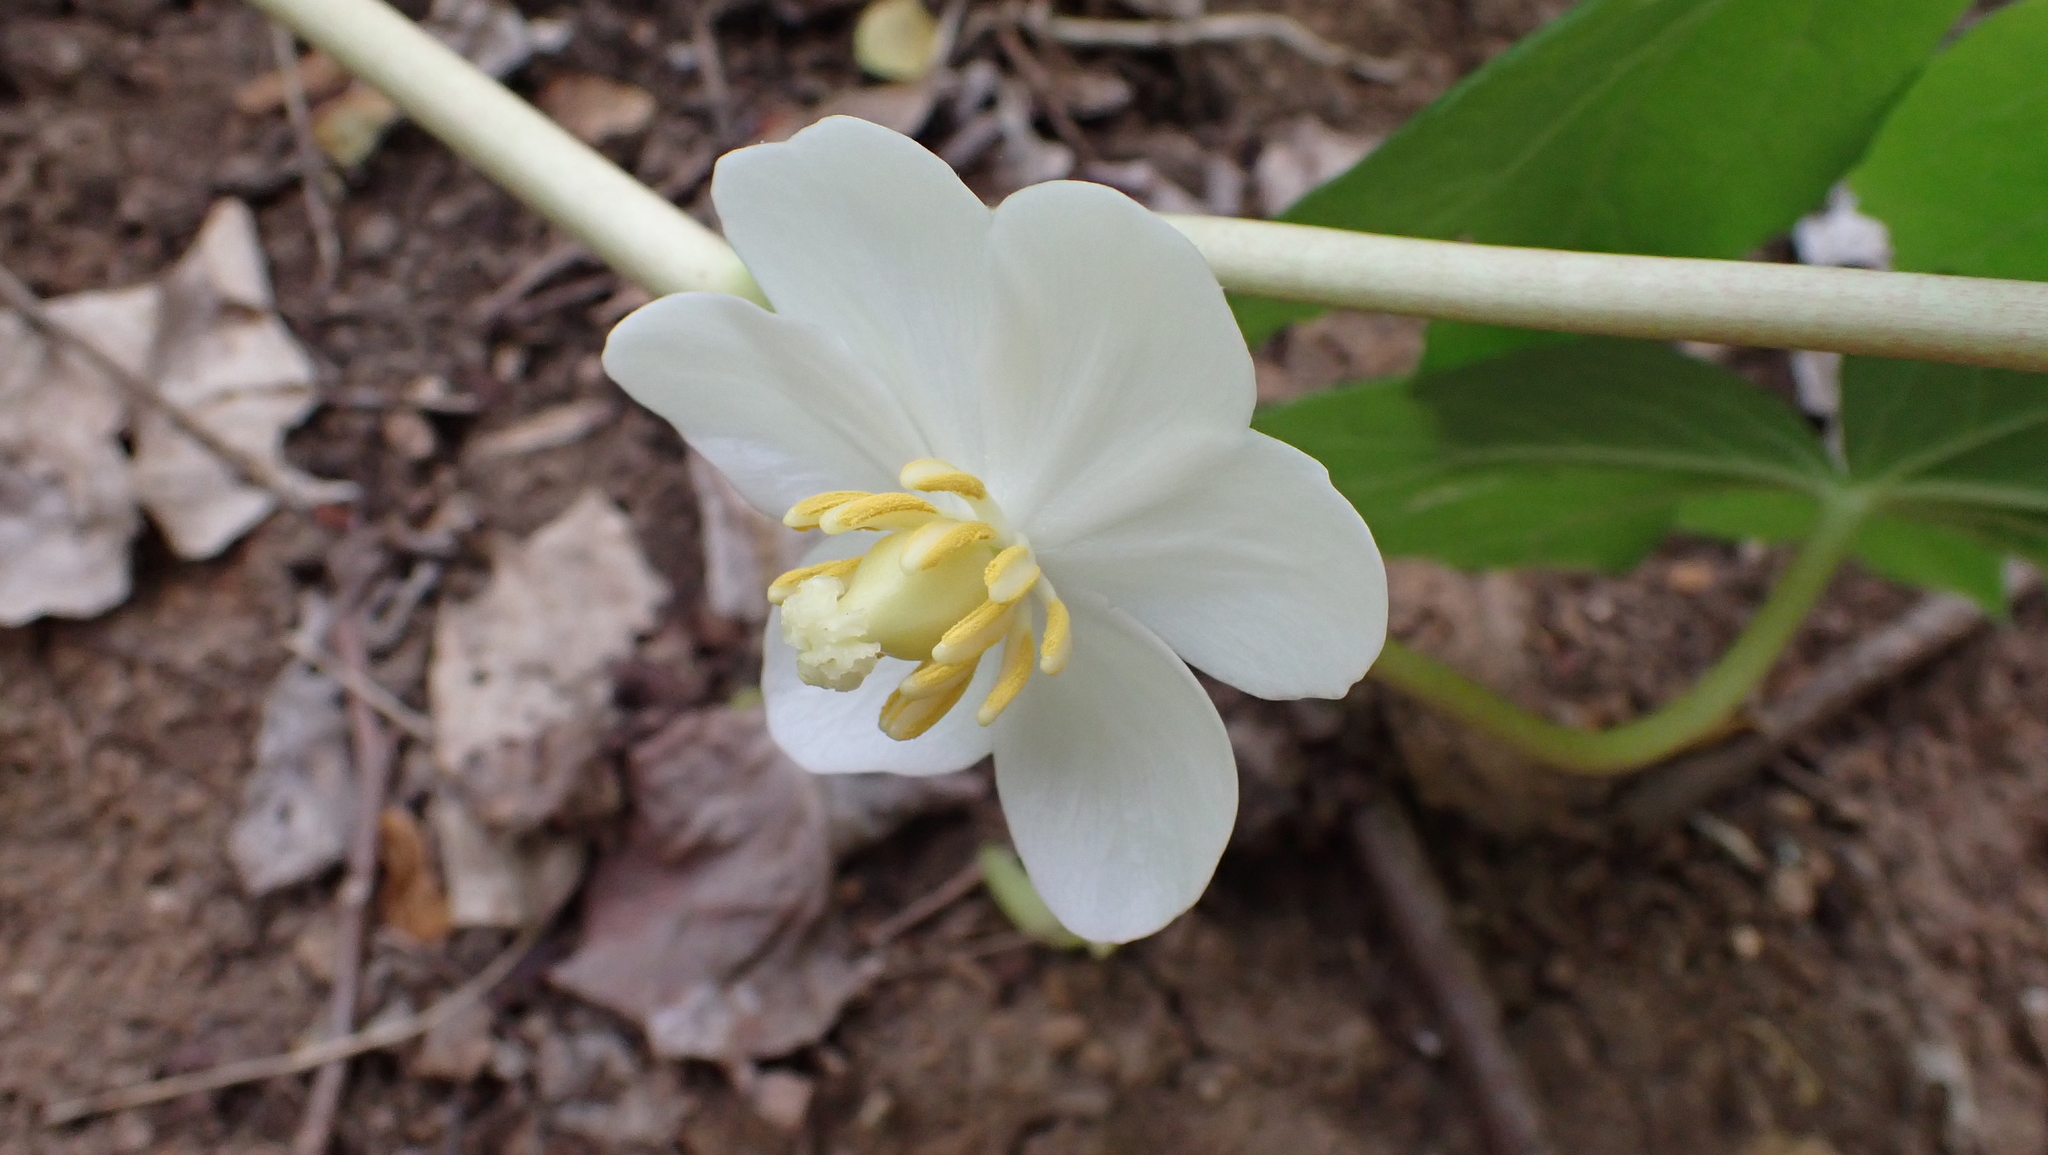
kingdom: Plantae
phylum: Tracheophyta
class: Magnoliopsida
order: Ranunculales
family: Berberidaceae
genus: Podophyllum
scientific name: Podophyllum peltatum
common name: Wild mandrake
